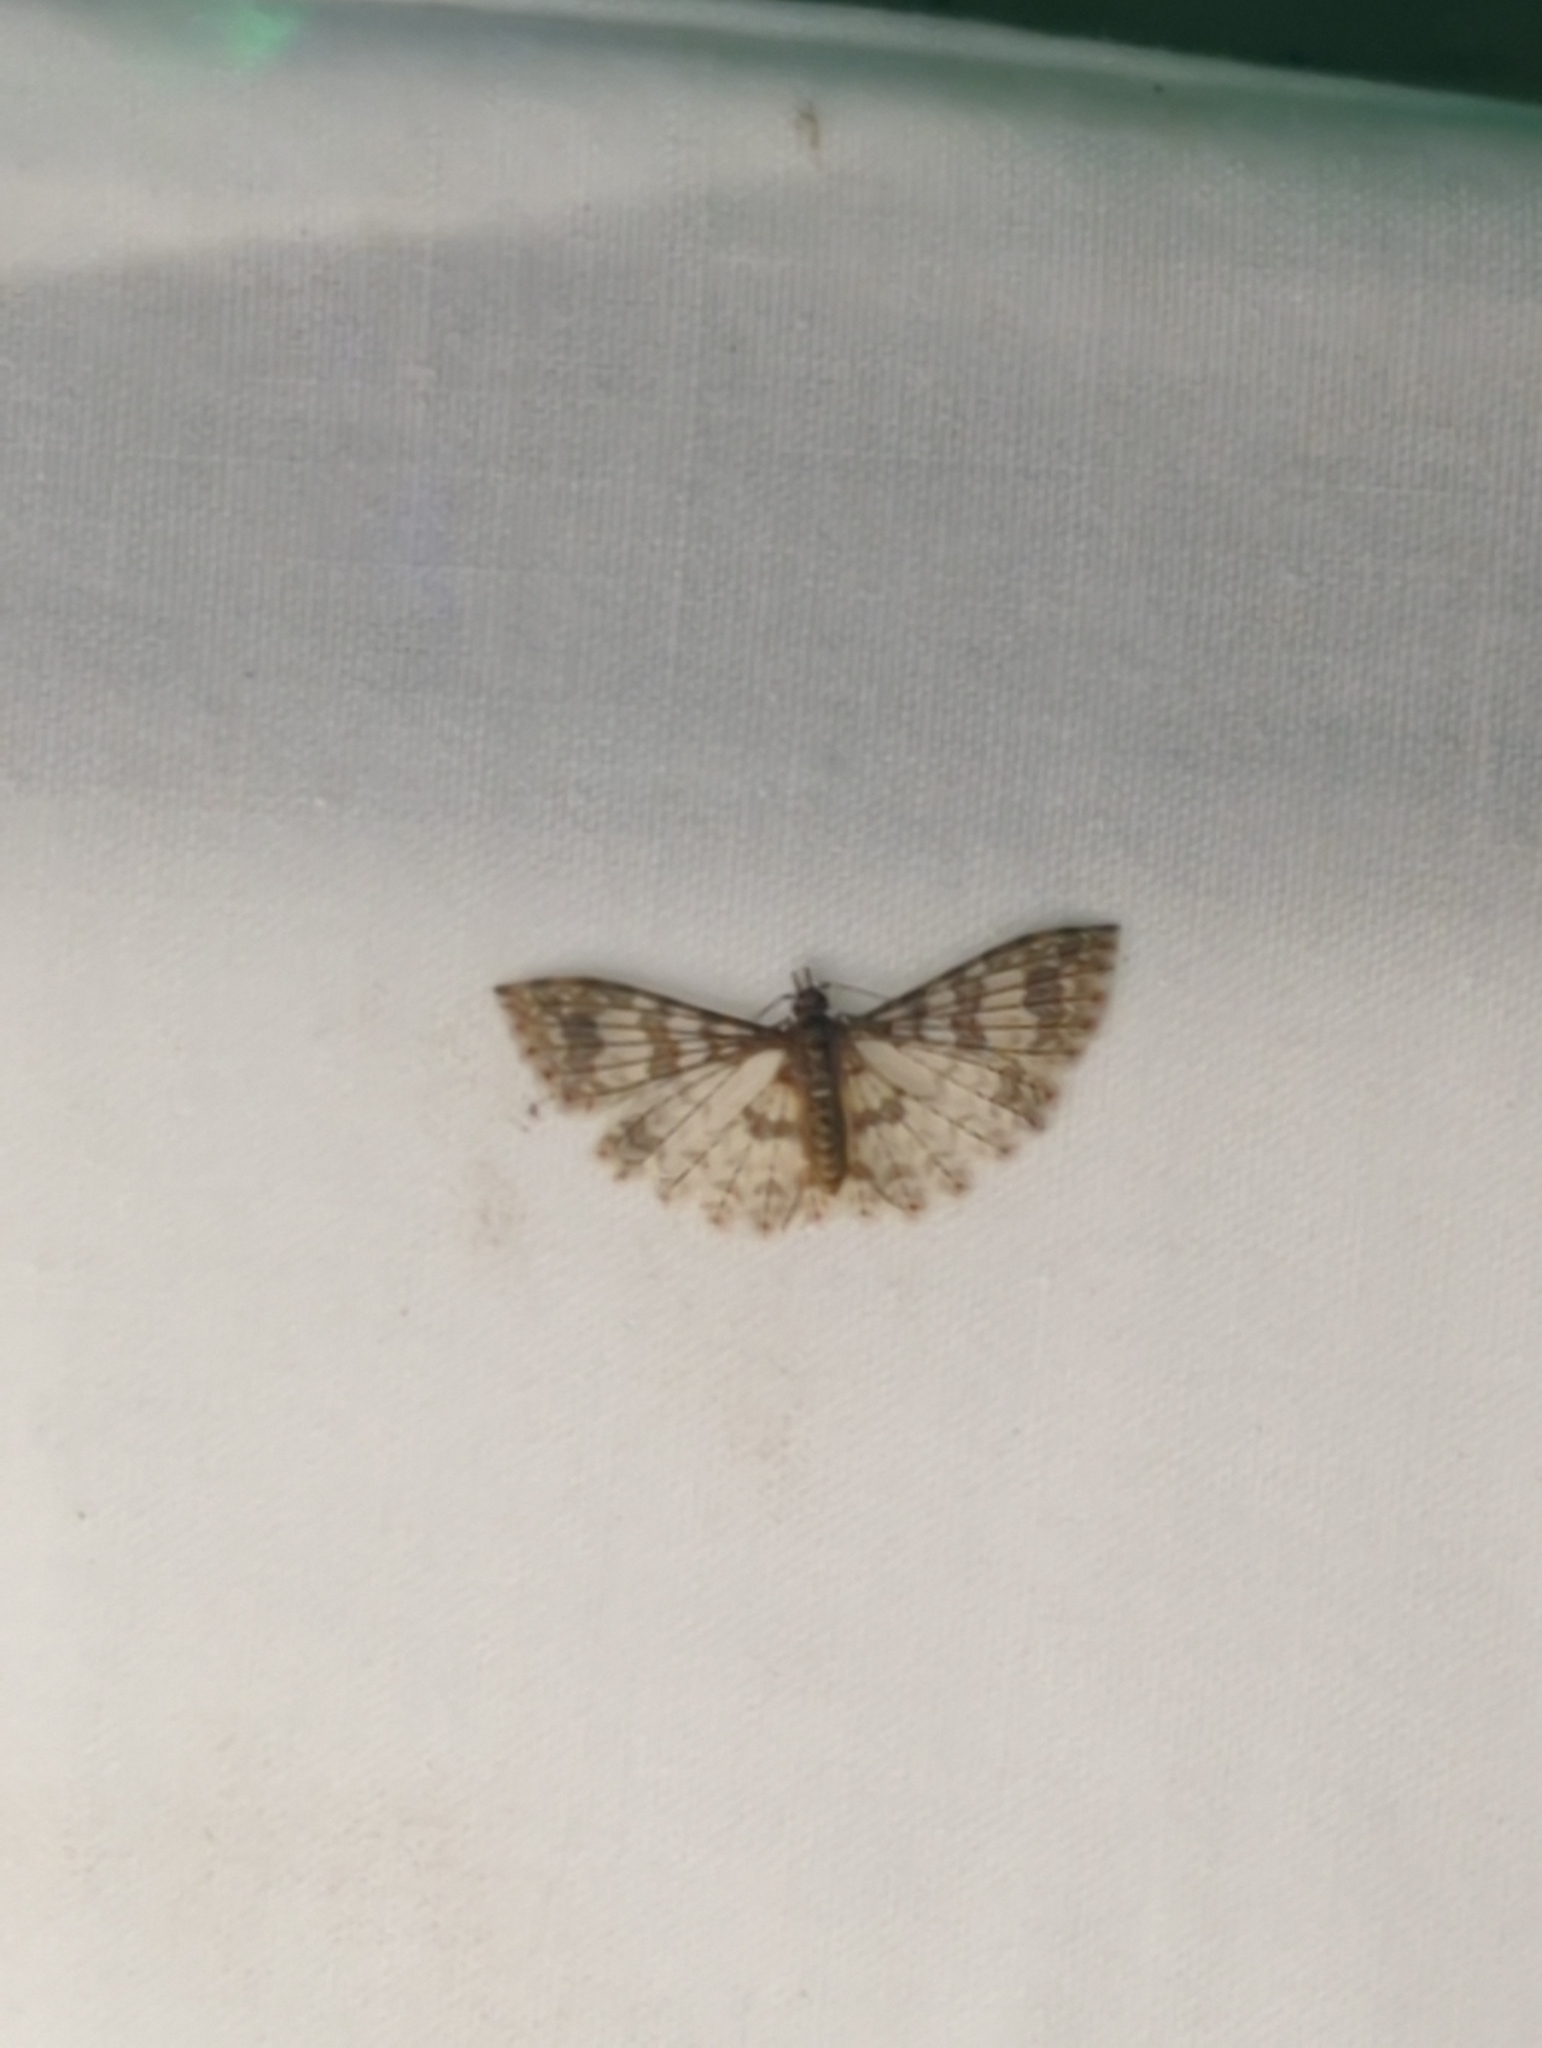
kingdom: Animalia
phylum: Arthropoda
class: Insecta
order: Lepidoptera
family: Alucitidae
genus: Alucita
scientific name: Alucita phricodes
